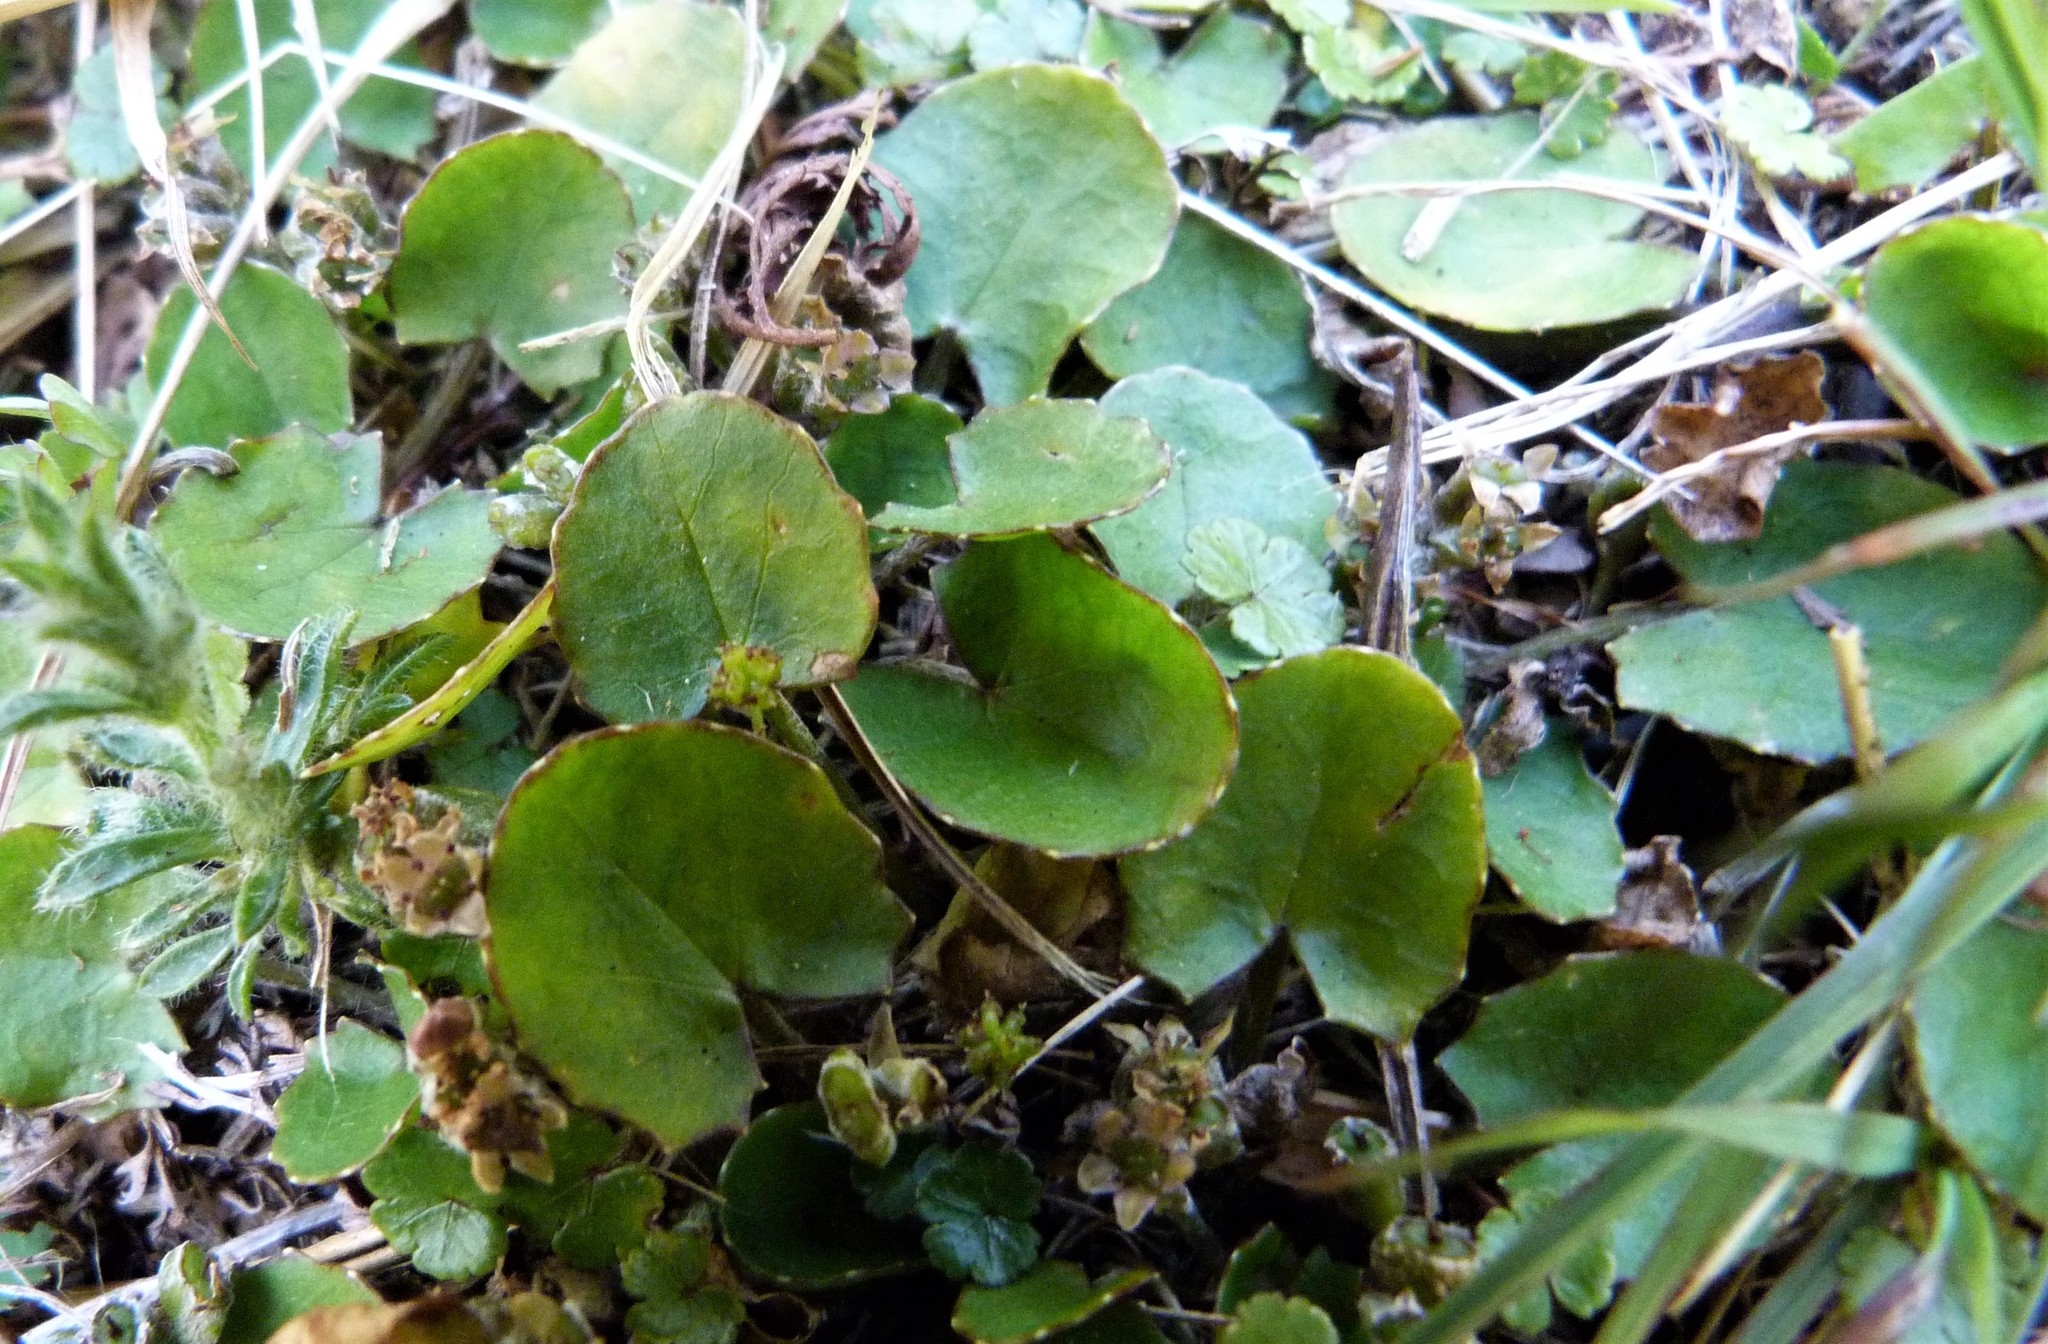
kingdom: Plantae
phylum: Tracheophyta
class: Magnoliopsida
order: Apiales
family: Apiaceae
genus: Centella
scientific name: Centella uniflora
